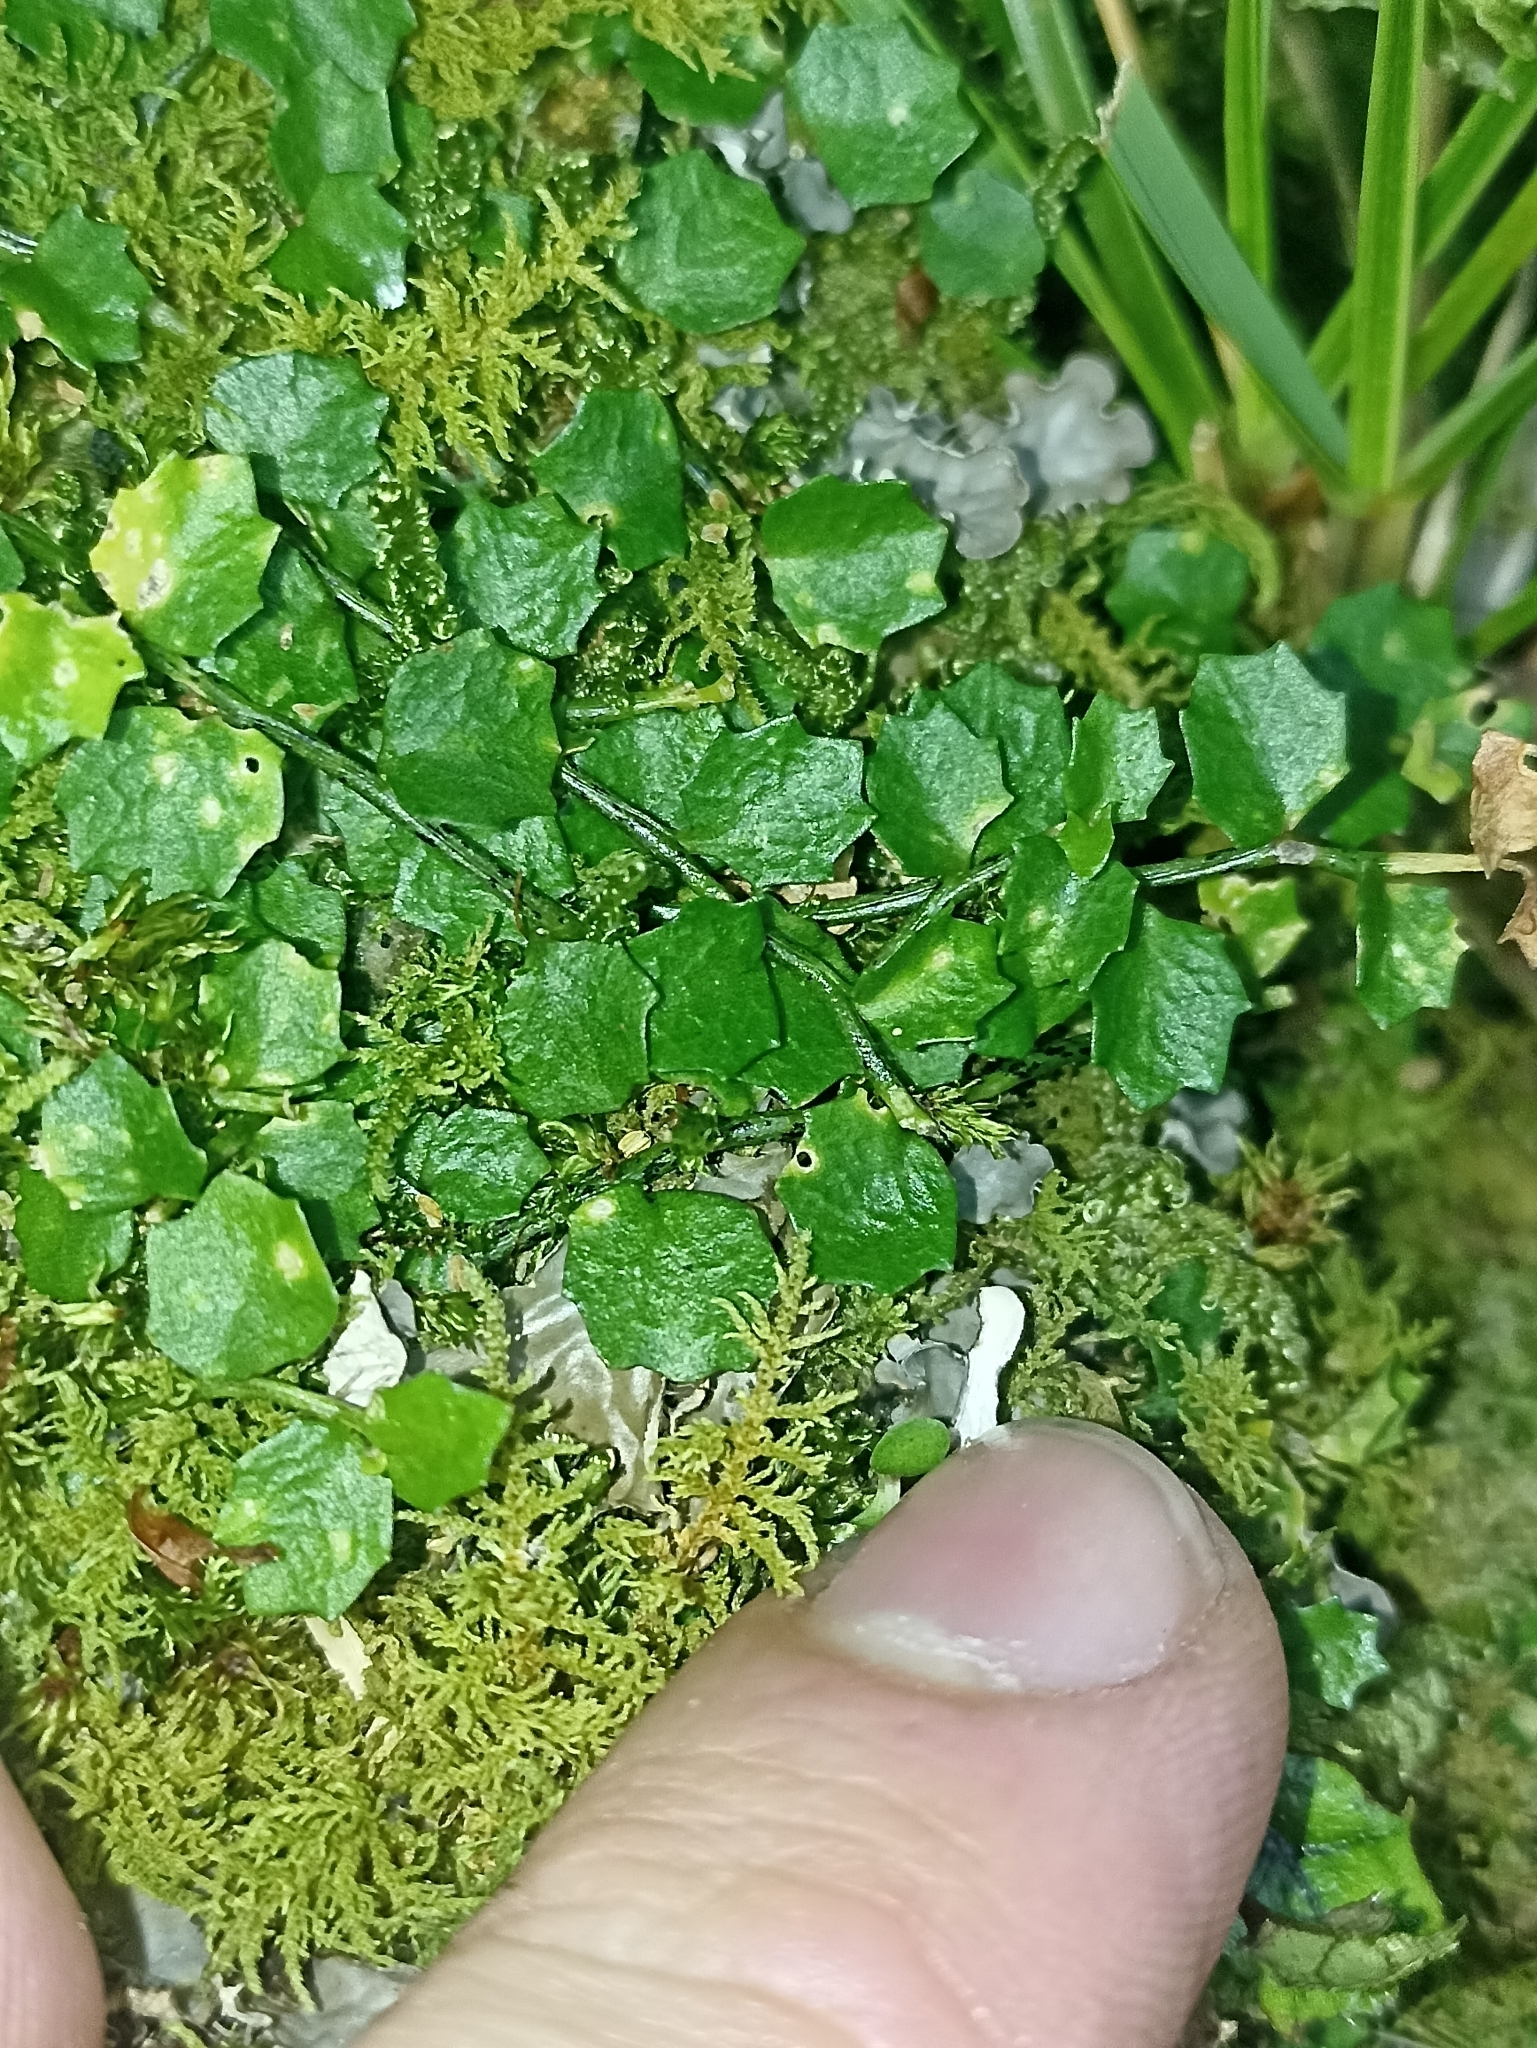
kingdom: Plantae
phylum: Tracheophyta
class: Magnoliopsida
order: Asterales
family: Campanulaceae
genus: Lobelia
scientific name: Lobelia angulata
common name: Lawn lobelia
